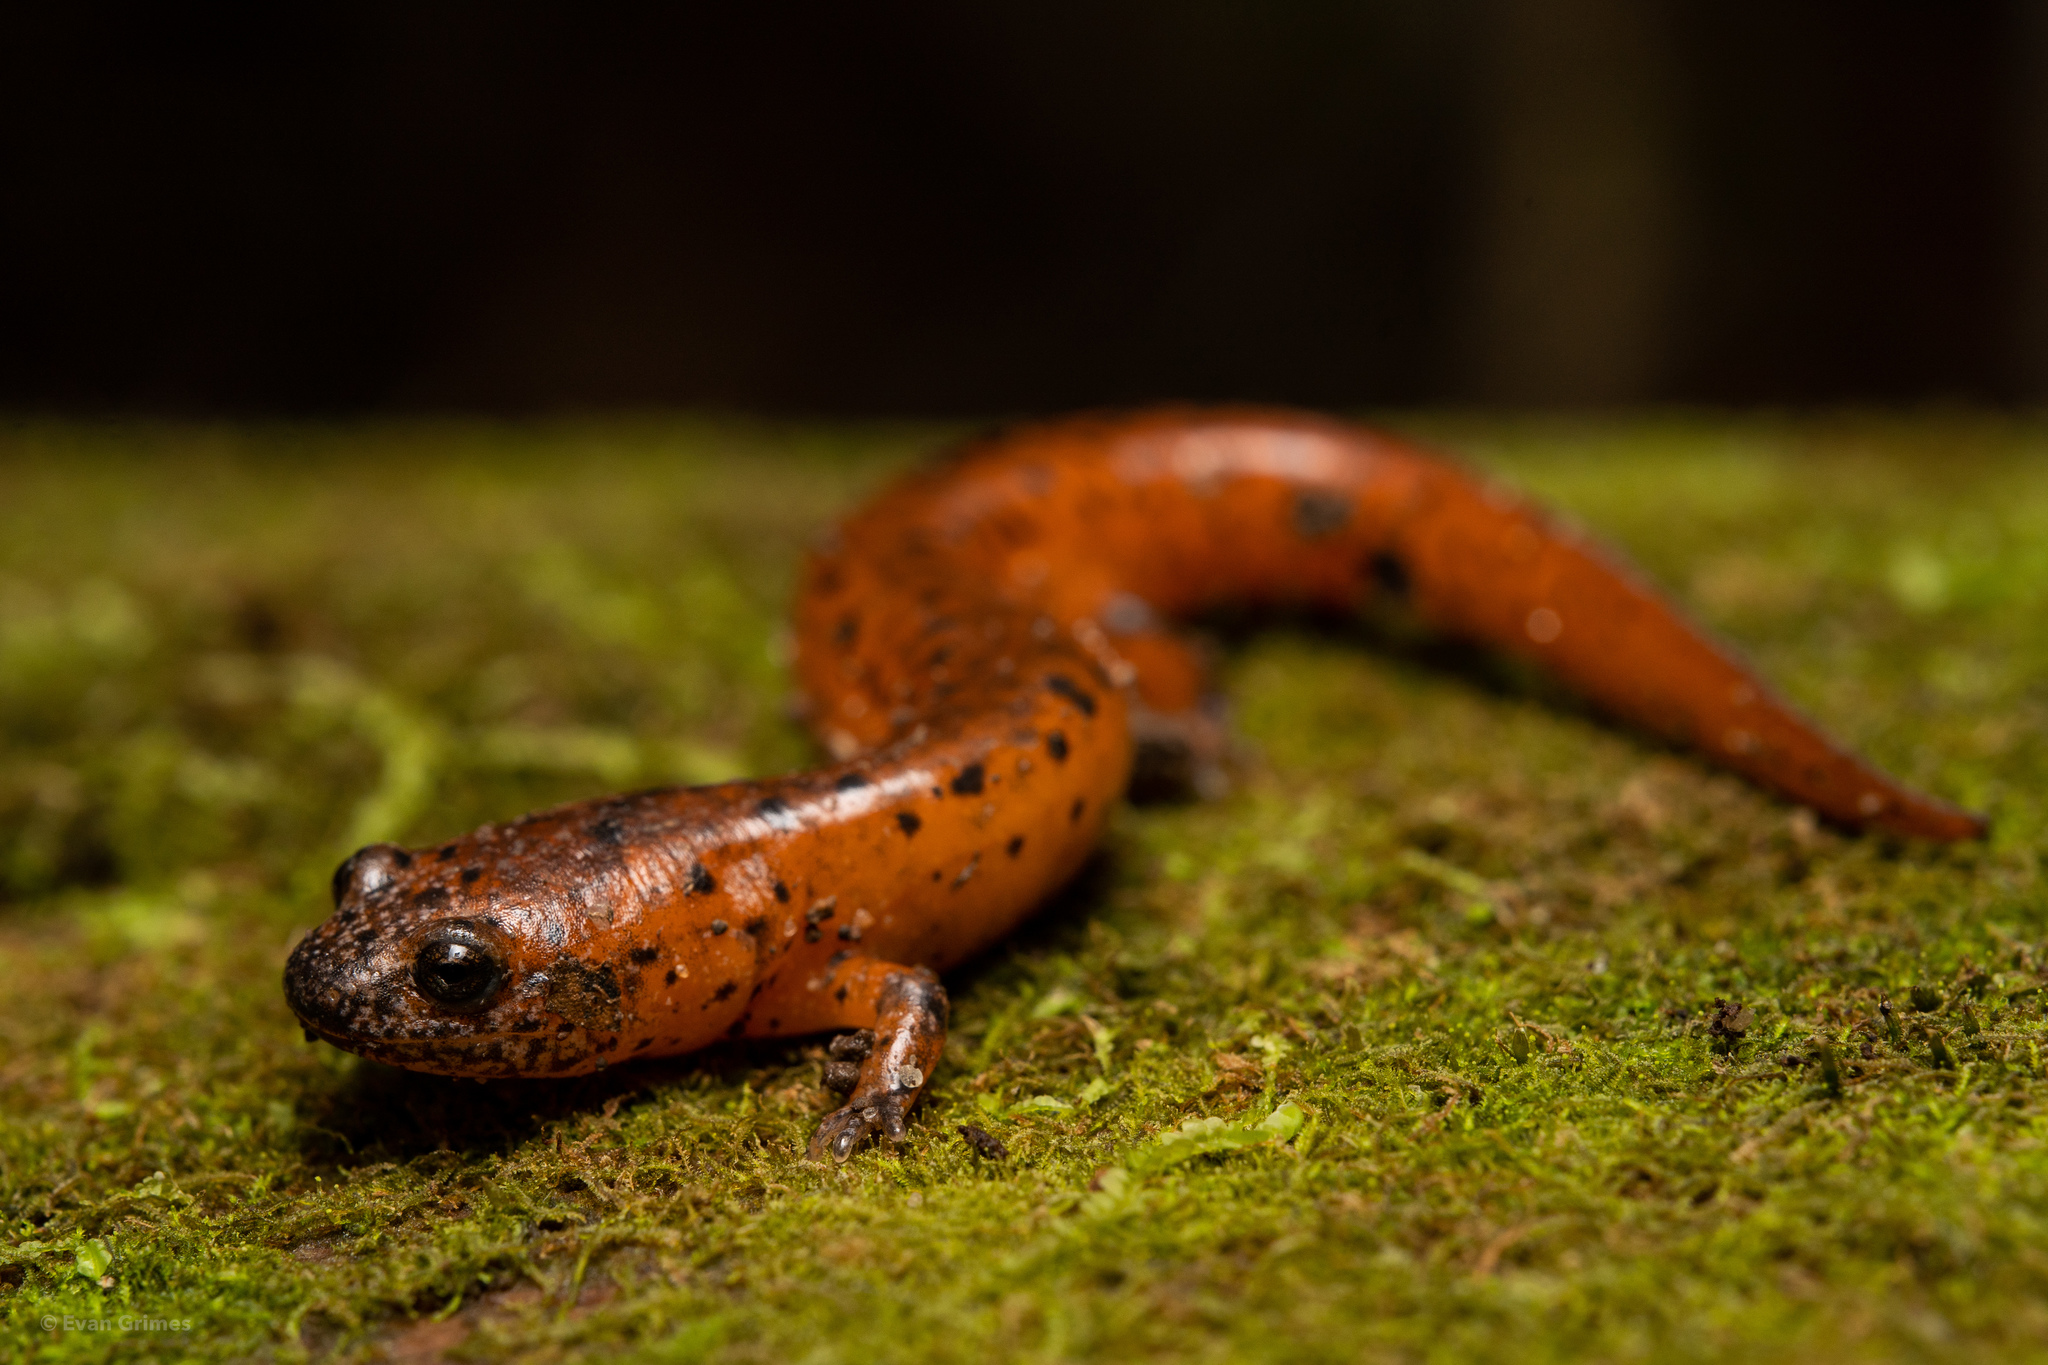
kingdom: Animalia
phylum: Chordata
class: Amphibia
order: Caudata
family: Plethodontidae
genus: Pseudotriton
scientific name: Pseudotriton ruber
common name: Red salamander
